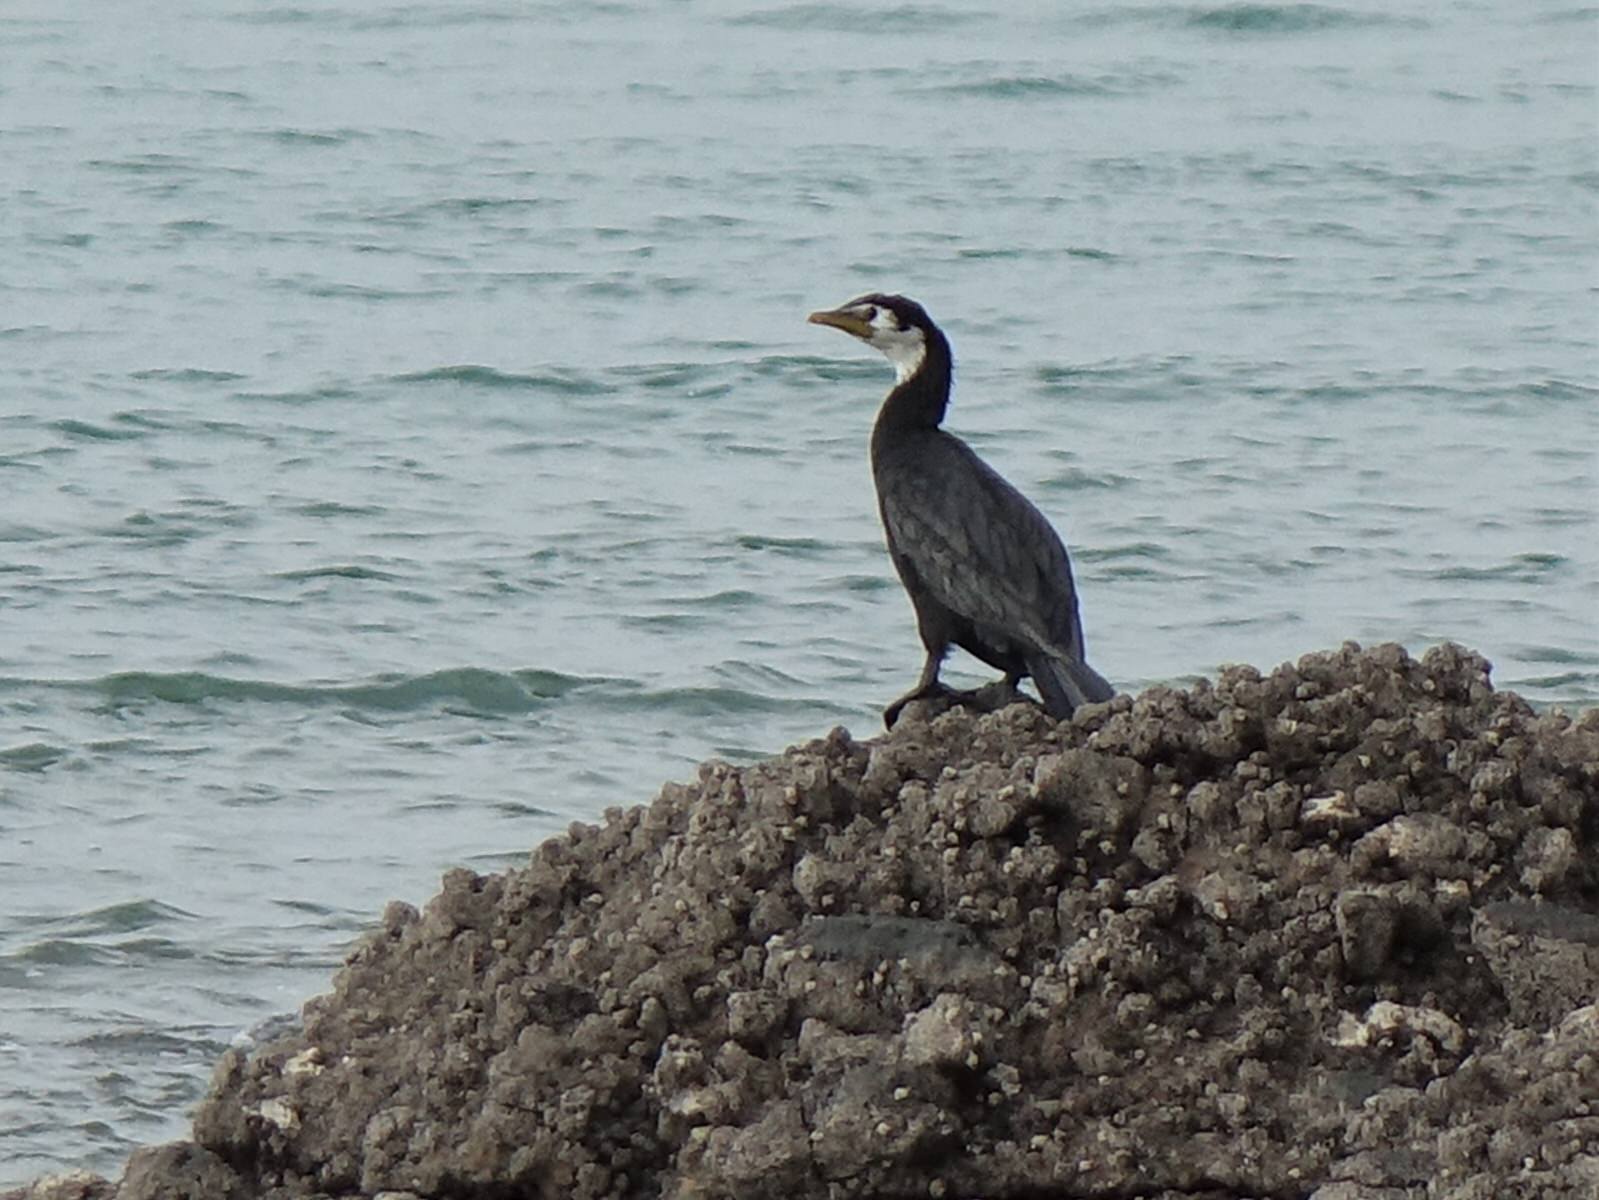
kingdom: Animalia
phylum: Chordata
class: Aves
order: Suliformes
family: Phalacrocoracidae
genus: Microcarbo
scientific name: Microcarbo melanoleucos
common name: Little pied cormorant
